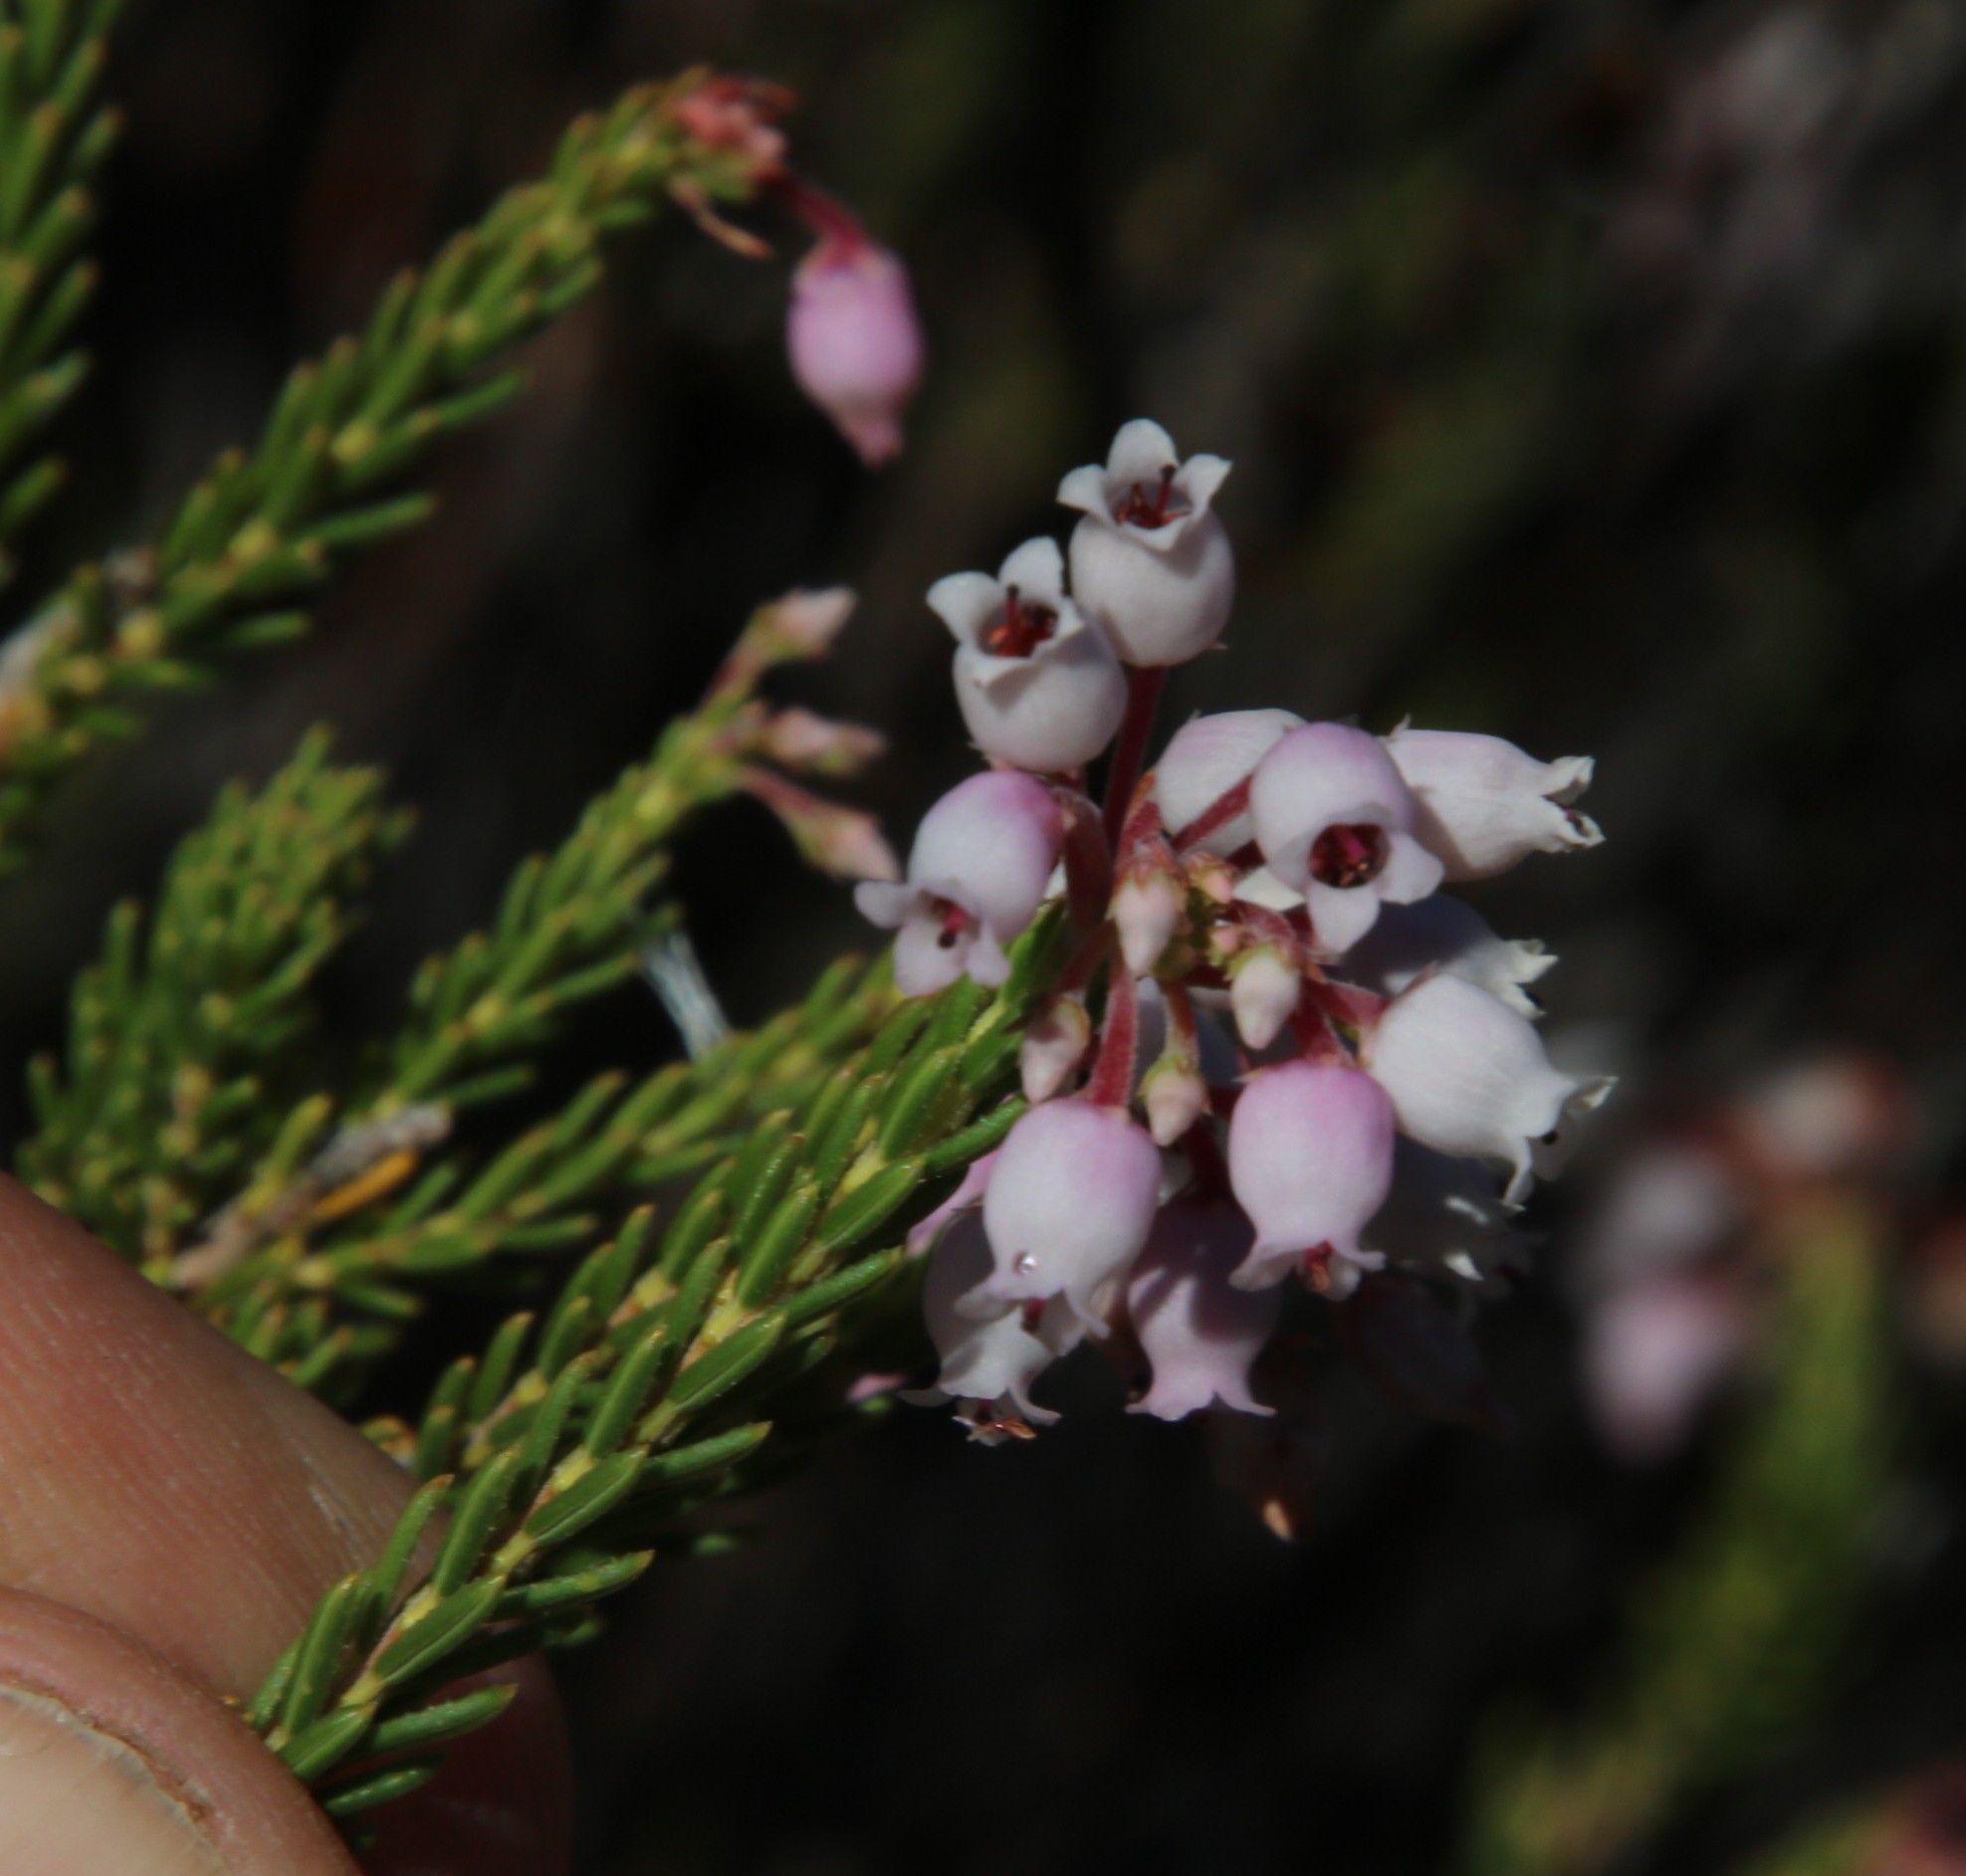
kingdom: Plantae
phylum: Tracheophyta
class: Magnoliopsida
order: Ericales
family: Ericaceae
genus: Erica
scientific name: Erica verecunda
